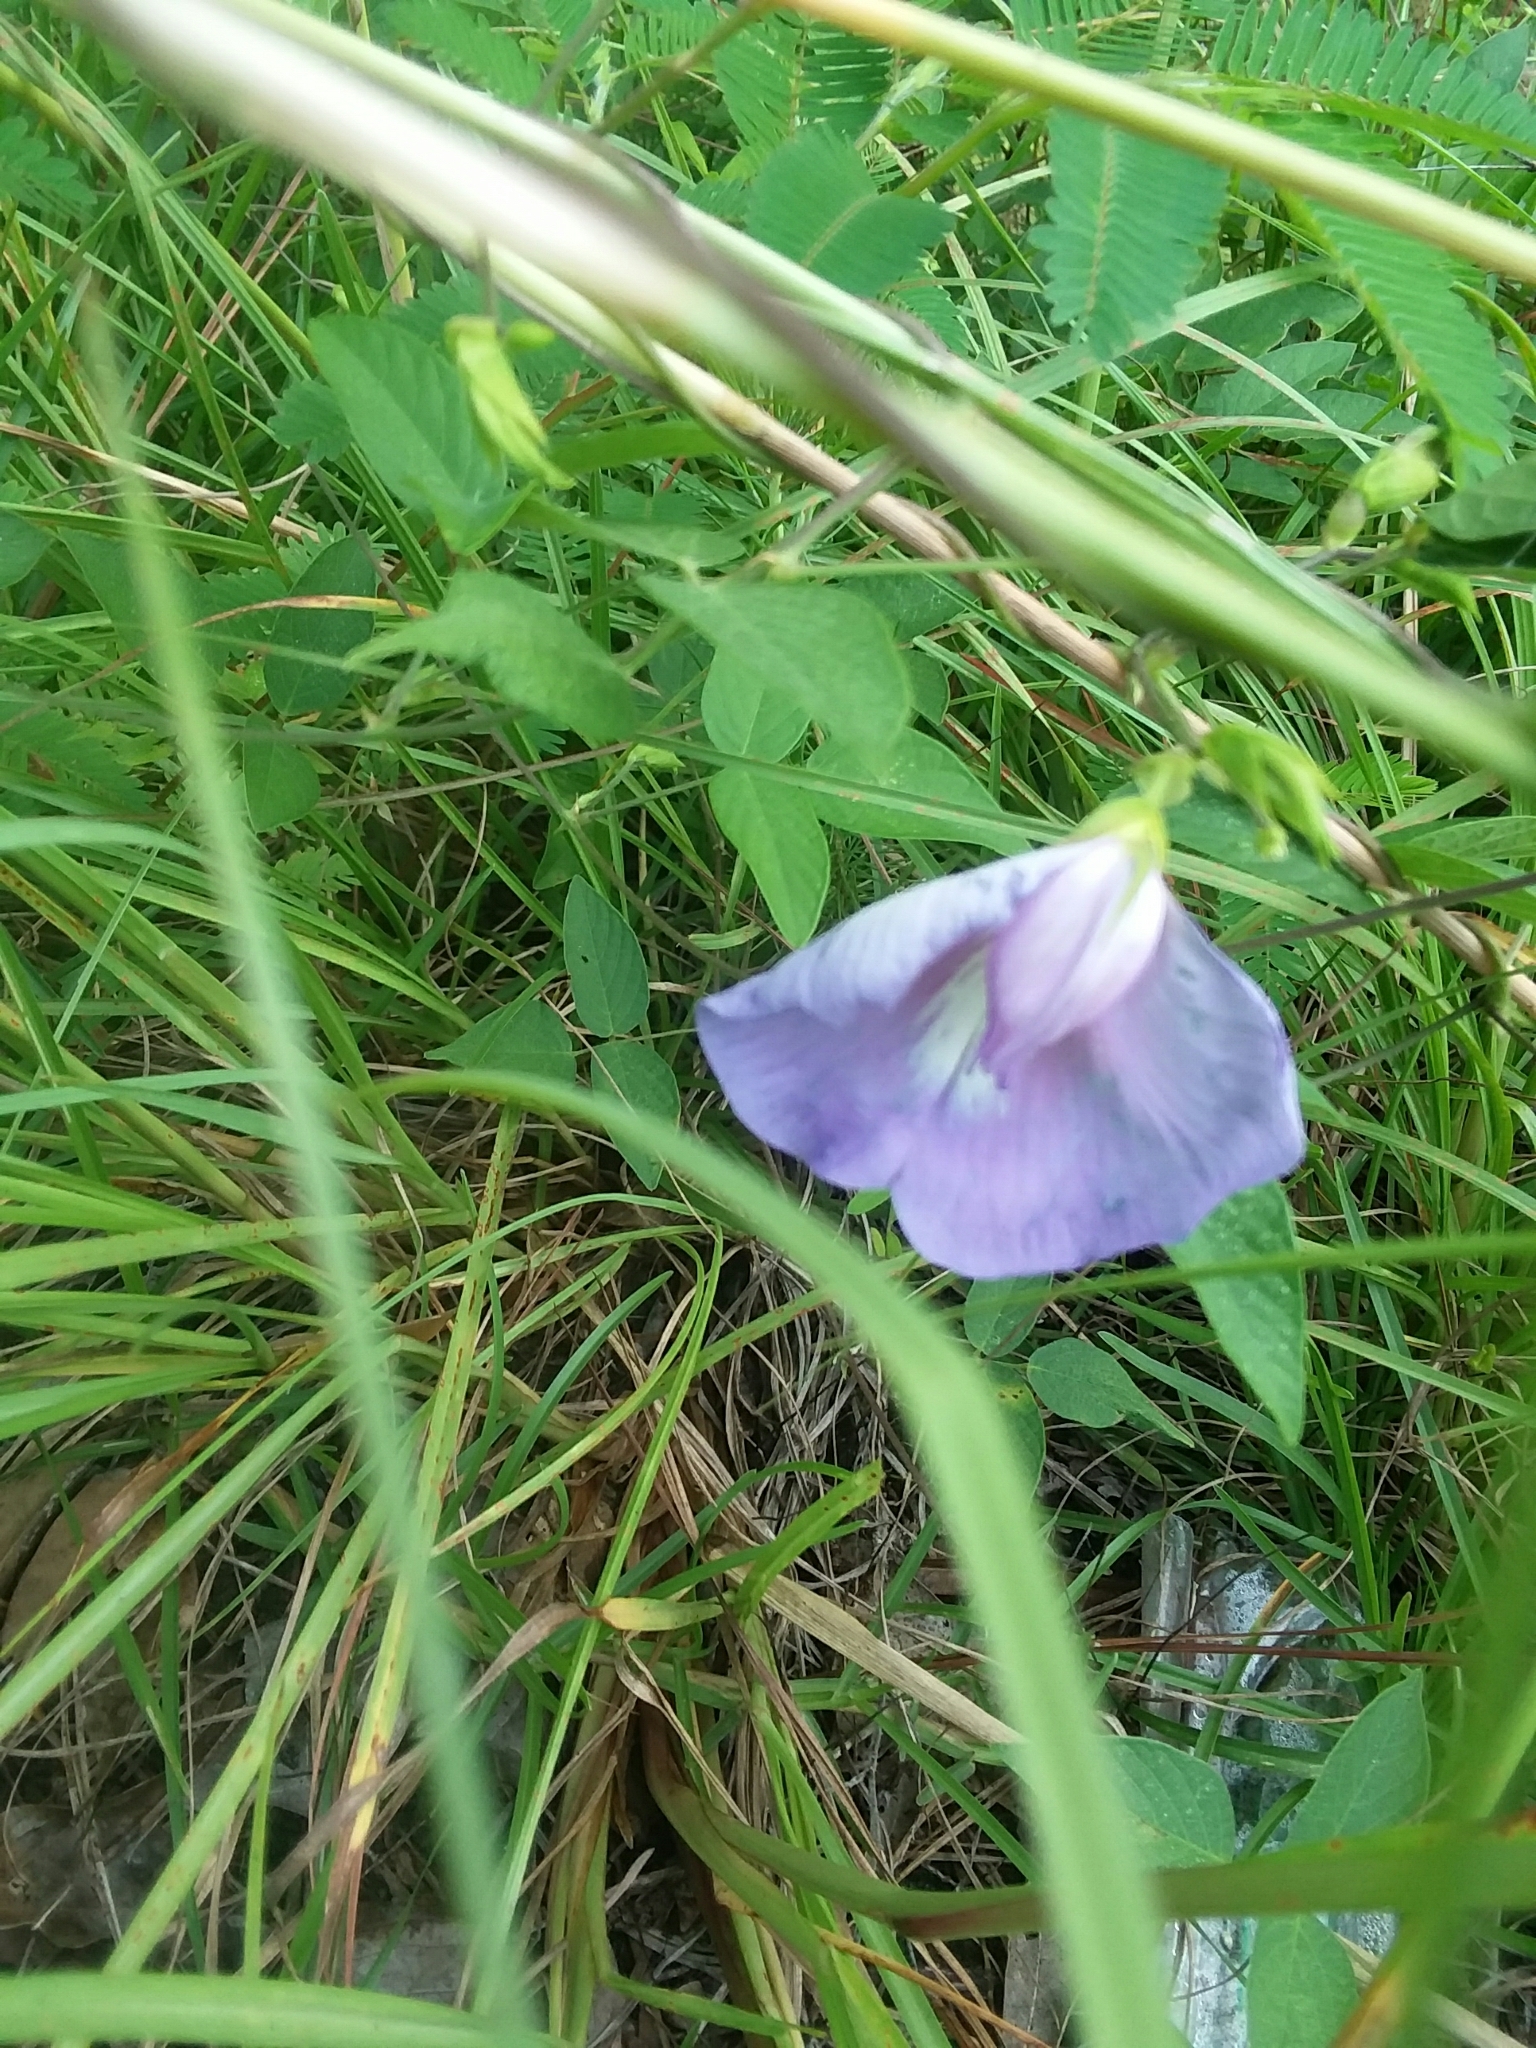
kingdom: Plantae
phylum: Tracheophyta
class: Magnoliopsida
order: Fabales
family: Fabaceae
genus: Centrosema
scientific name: Centrosema virginianum
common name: Butterfly-pea
